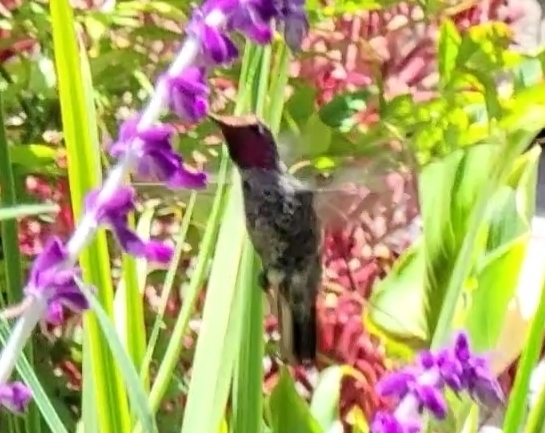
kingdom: Animalia
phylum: Chordata
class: Aves
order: Apodiformes
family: Trochilidae
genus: Calypte
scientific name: Calypte anna
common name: Anna's hummingbird
